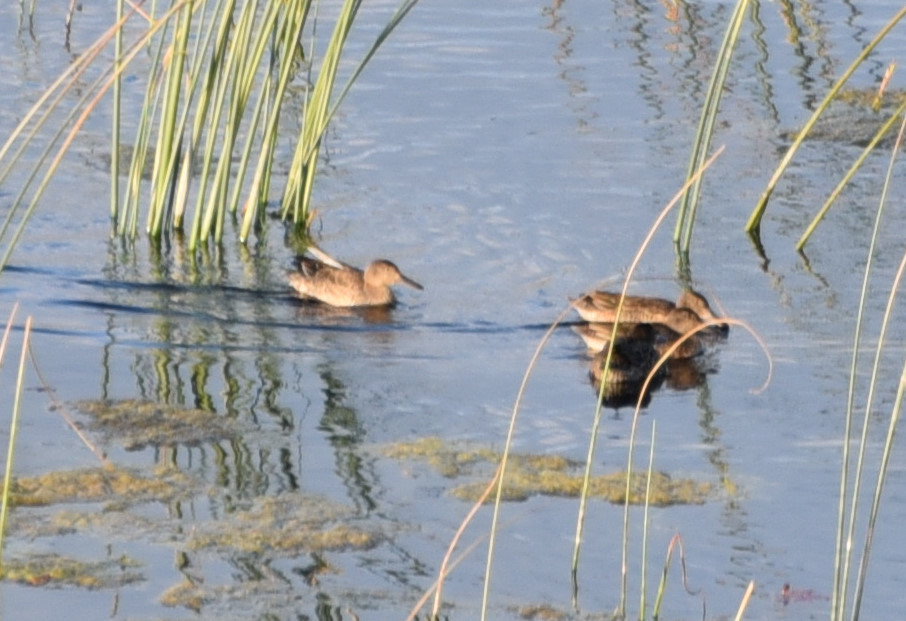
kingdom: Animalia
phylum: Chordata
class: Aves
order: Anseriformes
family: Anatidae
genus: Spatula
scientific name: Spatula cyanoptera
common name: Cinnamon teal
